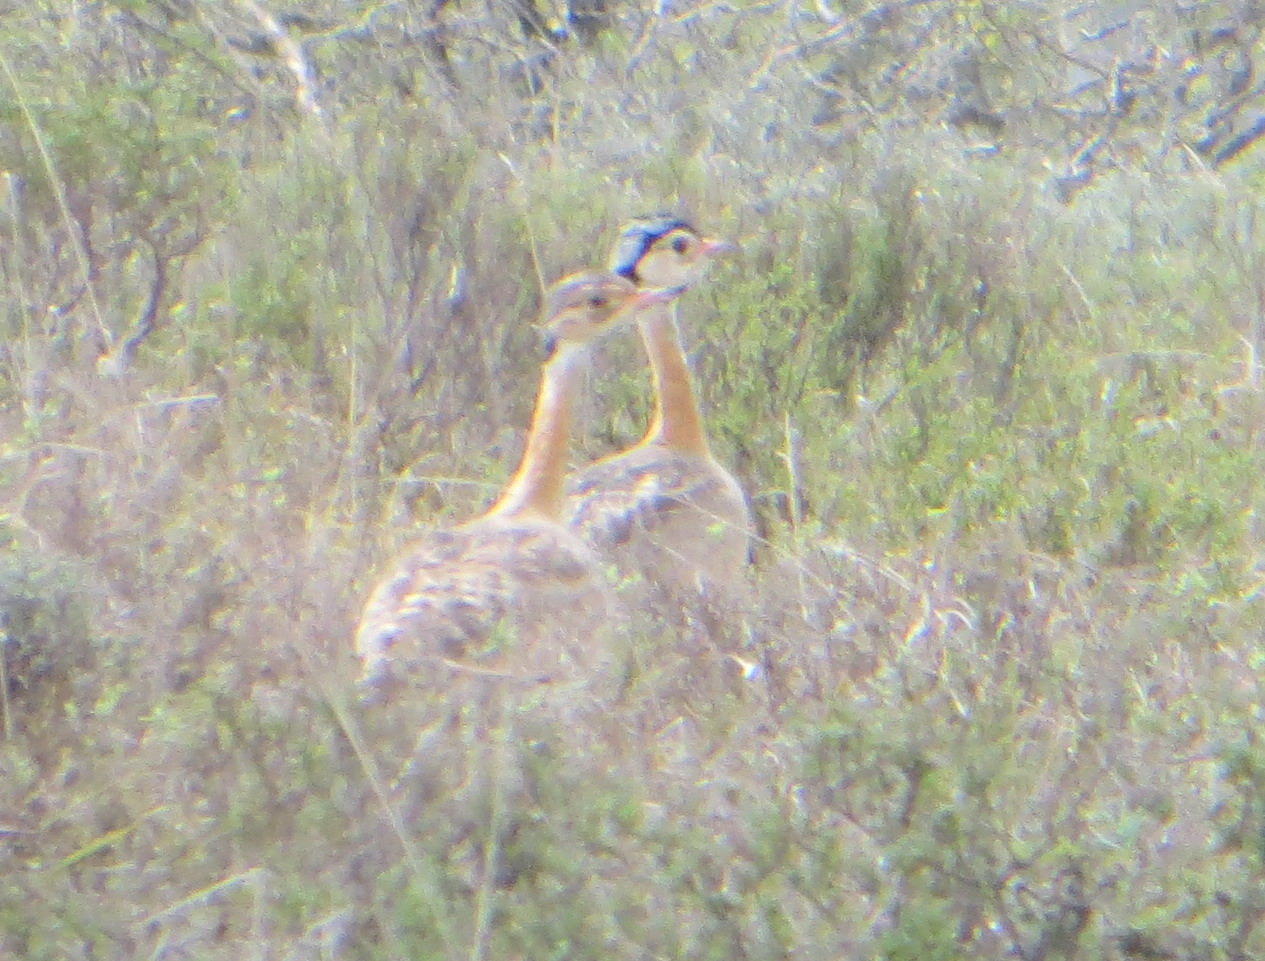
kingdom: Animalia
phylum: Chordata
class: Aves
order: Otidiformes
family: Otididae
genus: Eupodotis
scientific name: Eupodotis senegalensis
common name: White-bellied bustard
